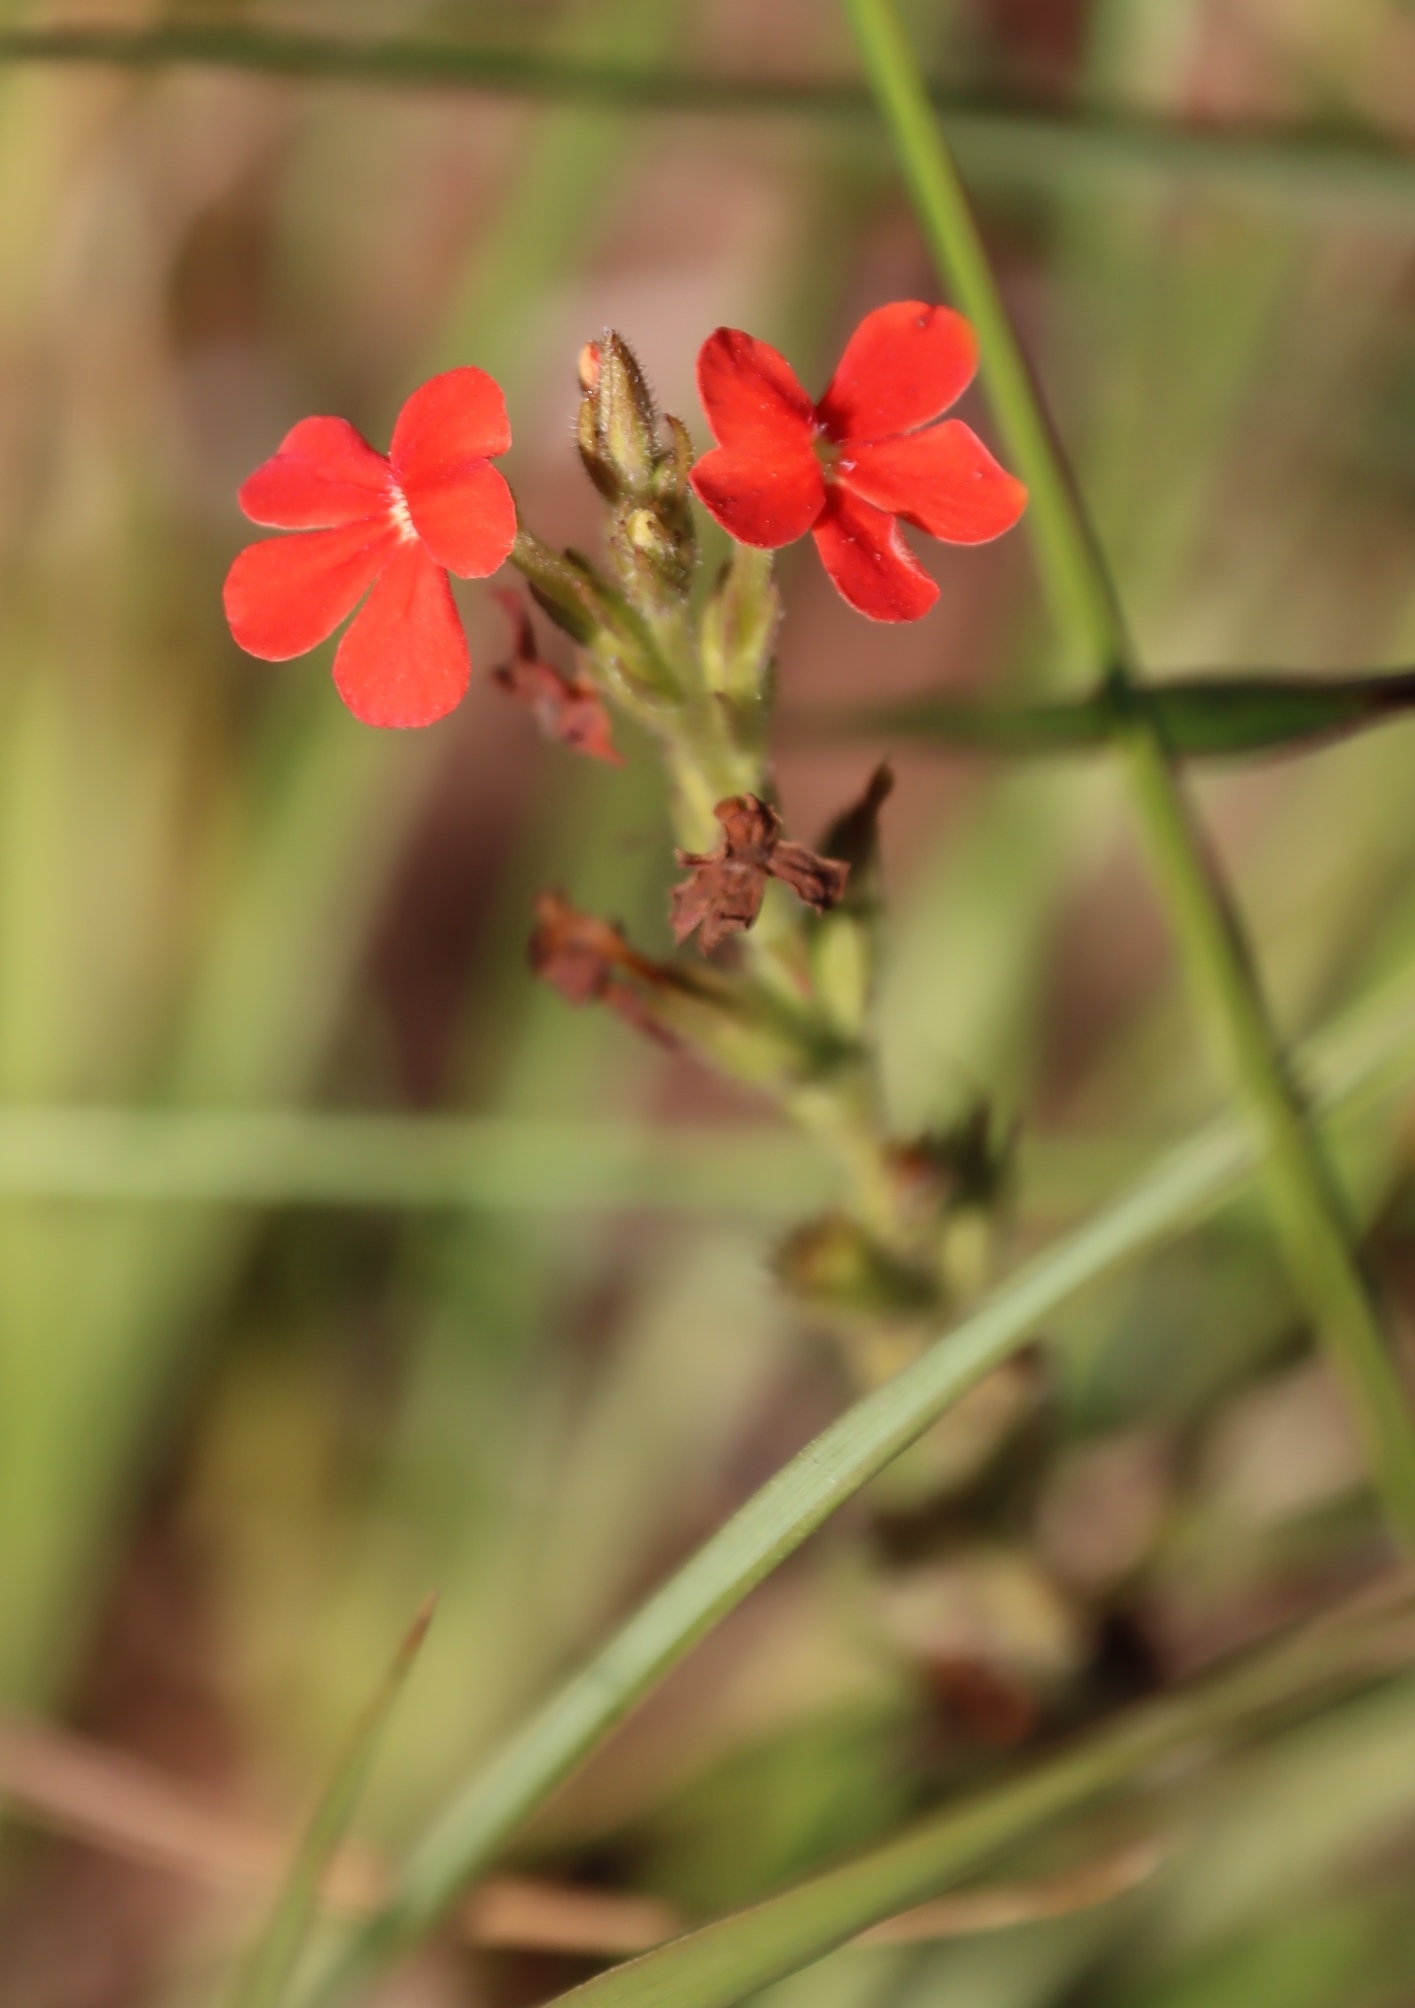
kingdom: Plantae
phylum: Tracheophyta
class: Magnoliopsida
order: Lamiales
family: Orobanchaceae
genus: Striga
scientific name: Striga elegans
